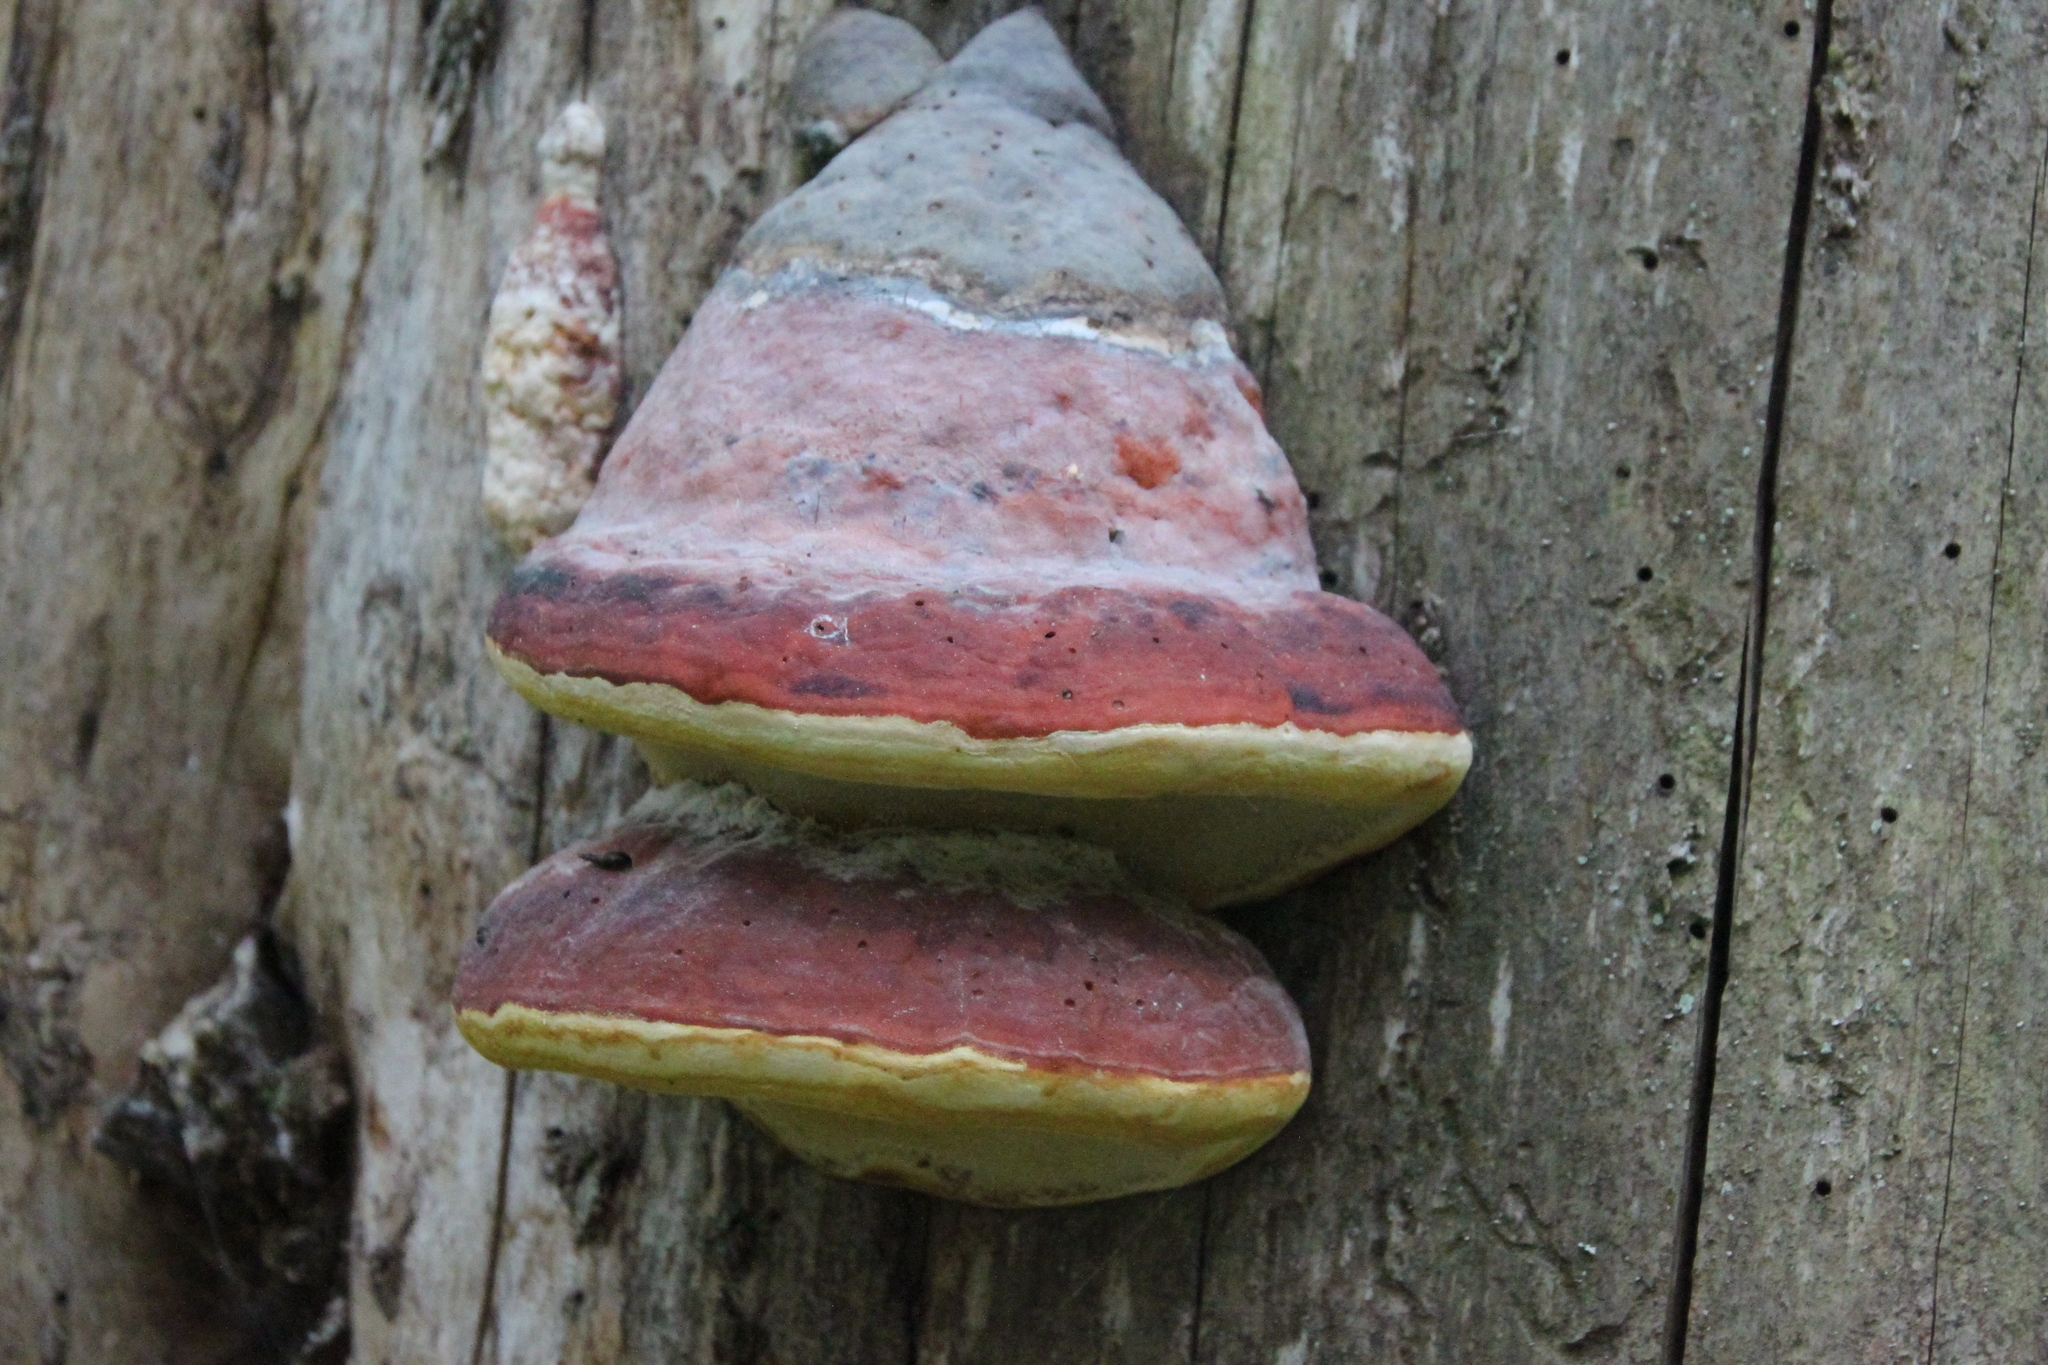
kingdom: Fungi
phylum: Basidiomycota
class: Agaricomycetes
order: Polyporales
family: Fomitopsidaceae
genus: Fomitopsis
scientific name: Fomitopsis pinicola
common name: Red-belted bracket
